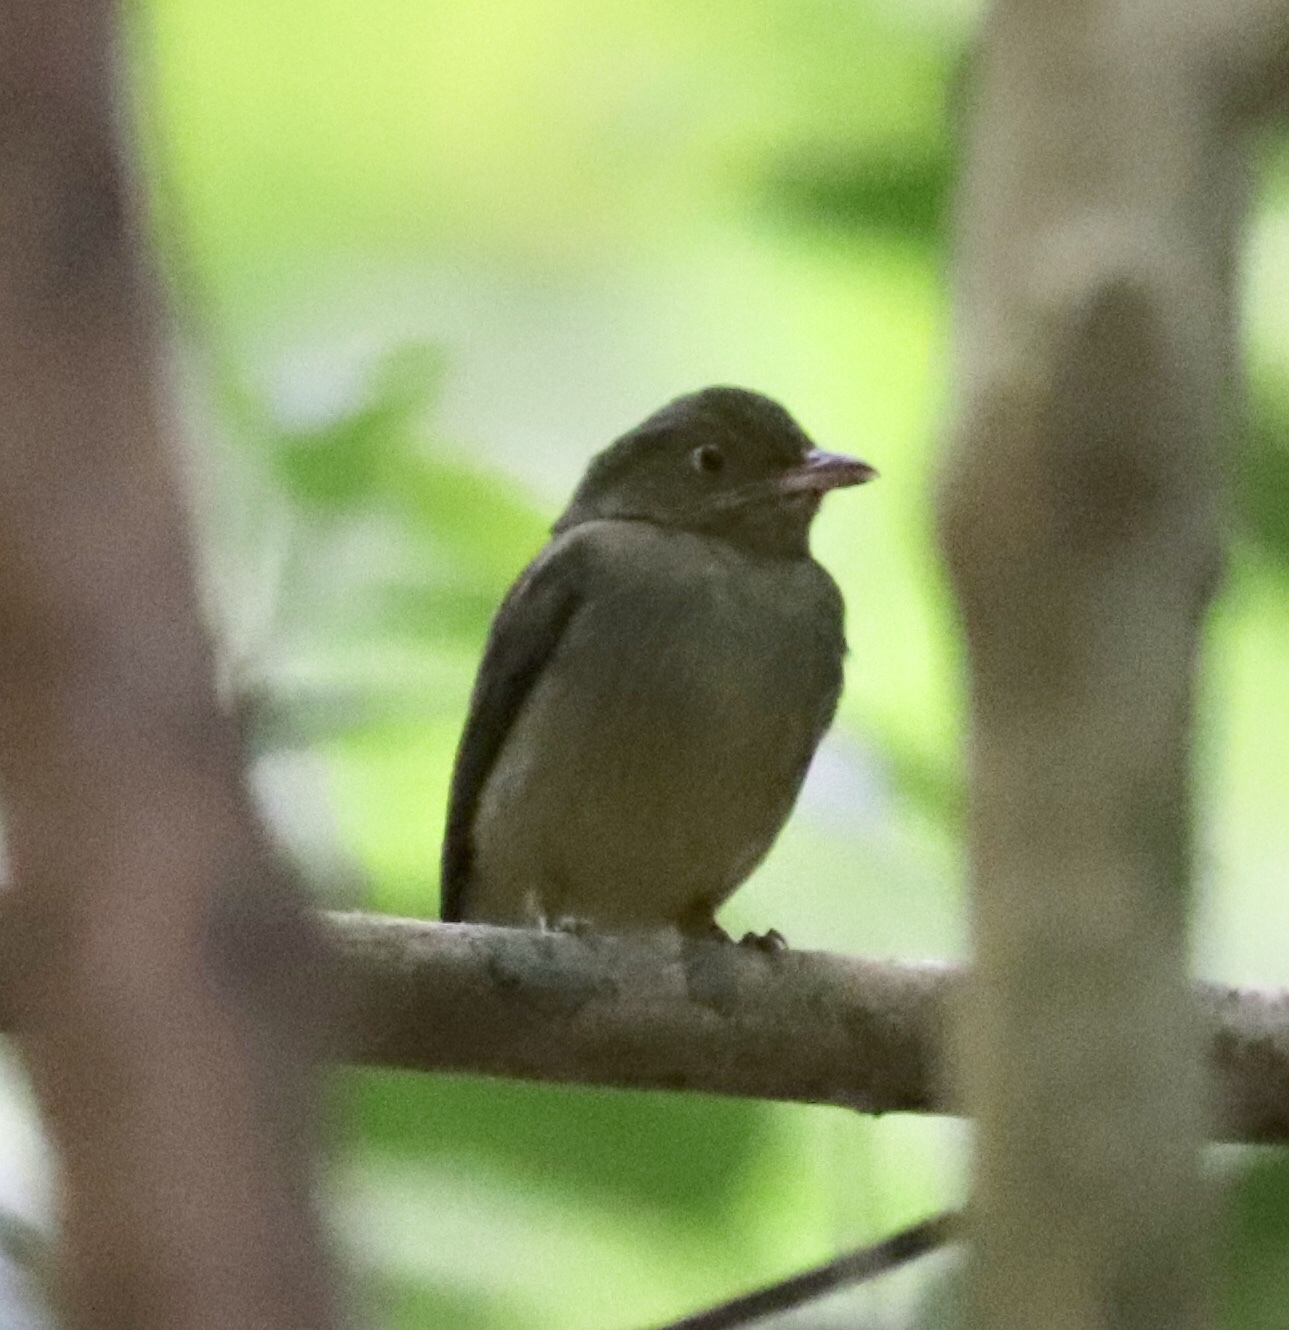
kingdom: Animalia
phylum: Chordata
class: Aves
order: Passeriformes
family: Pipridae
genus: Pipra
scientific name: Pipra mentalis
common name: Red-capped manakin
